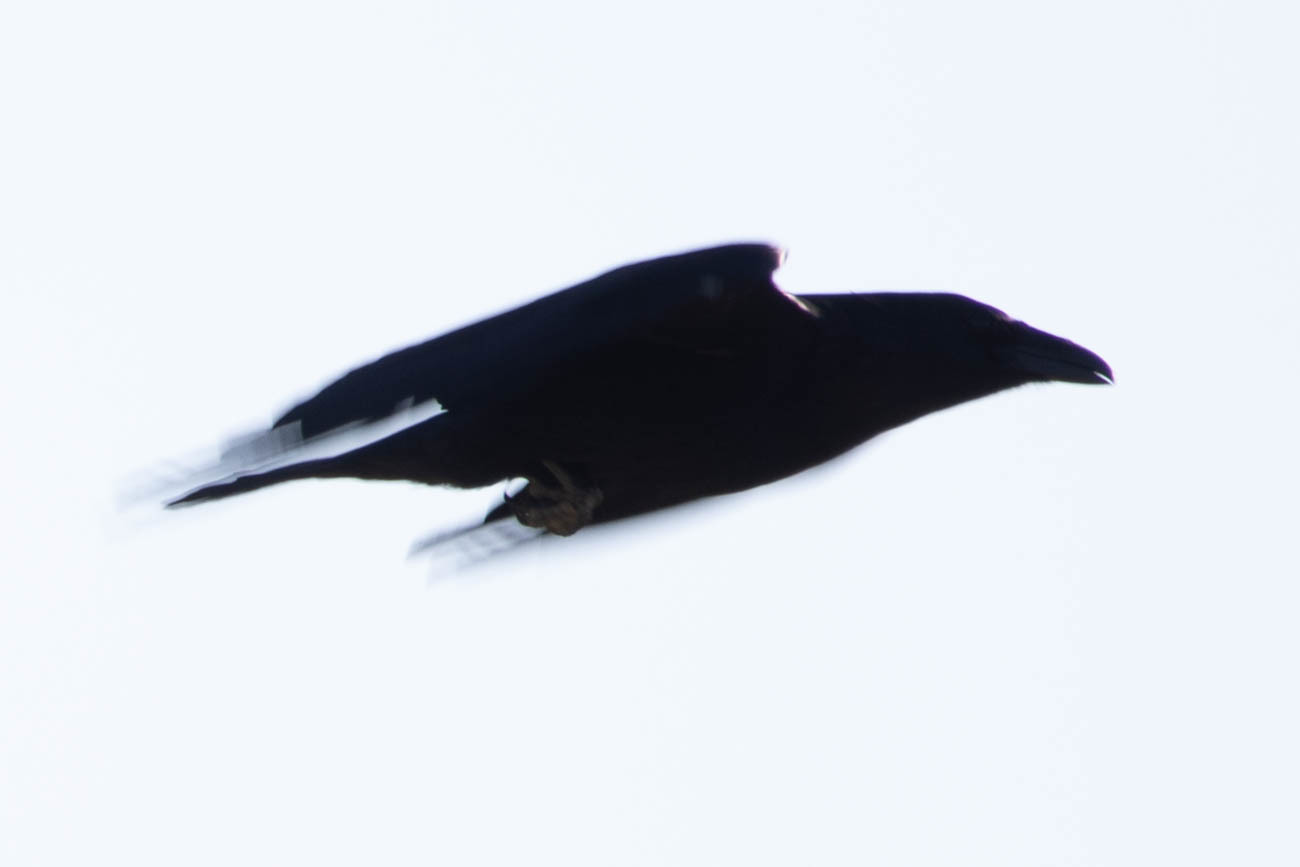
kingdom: Animalia
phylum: Chordata
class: Aves
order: Passeriformes
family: Corvidae
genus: Corvus
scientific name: Corvus corax
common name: Common raven
